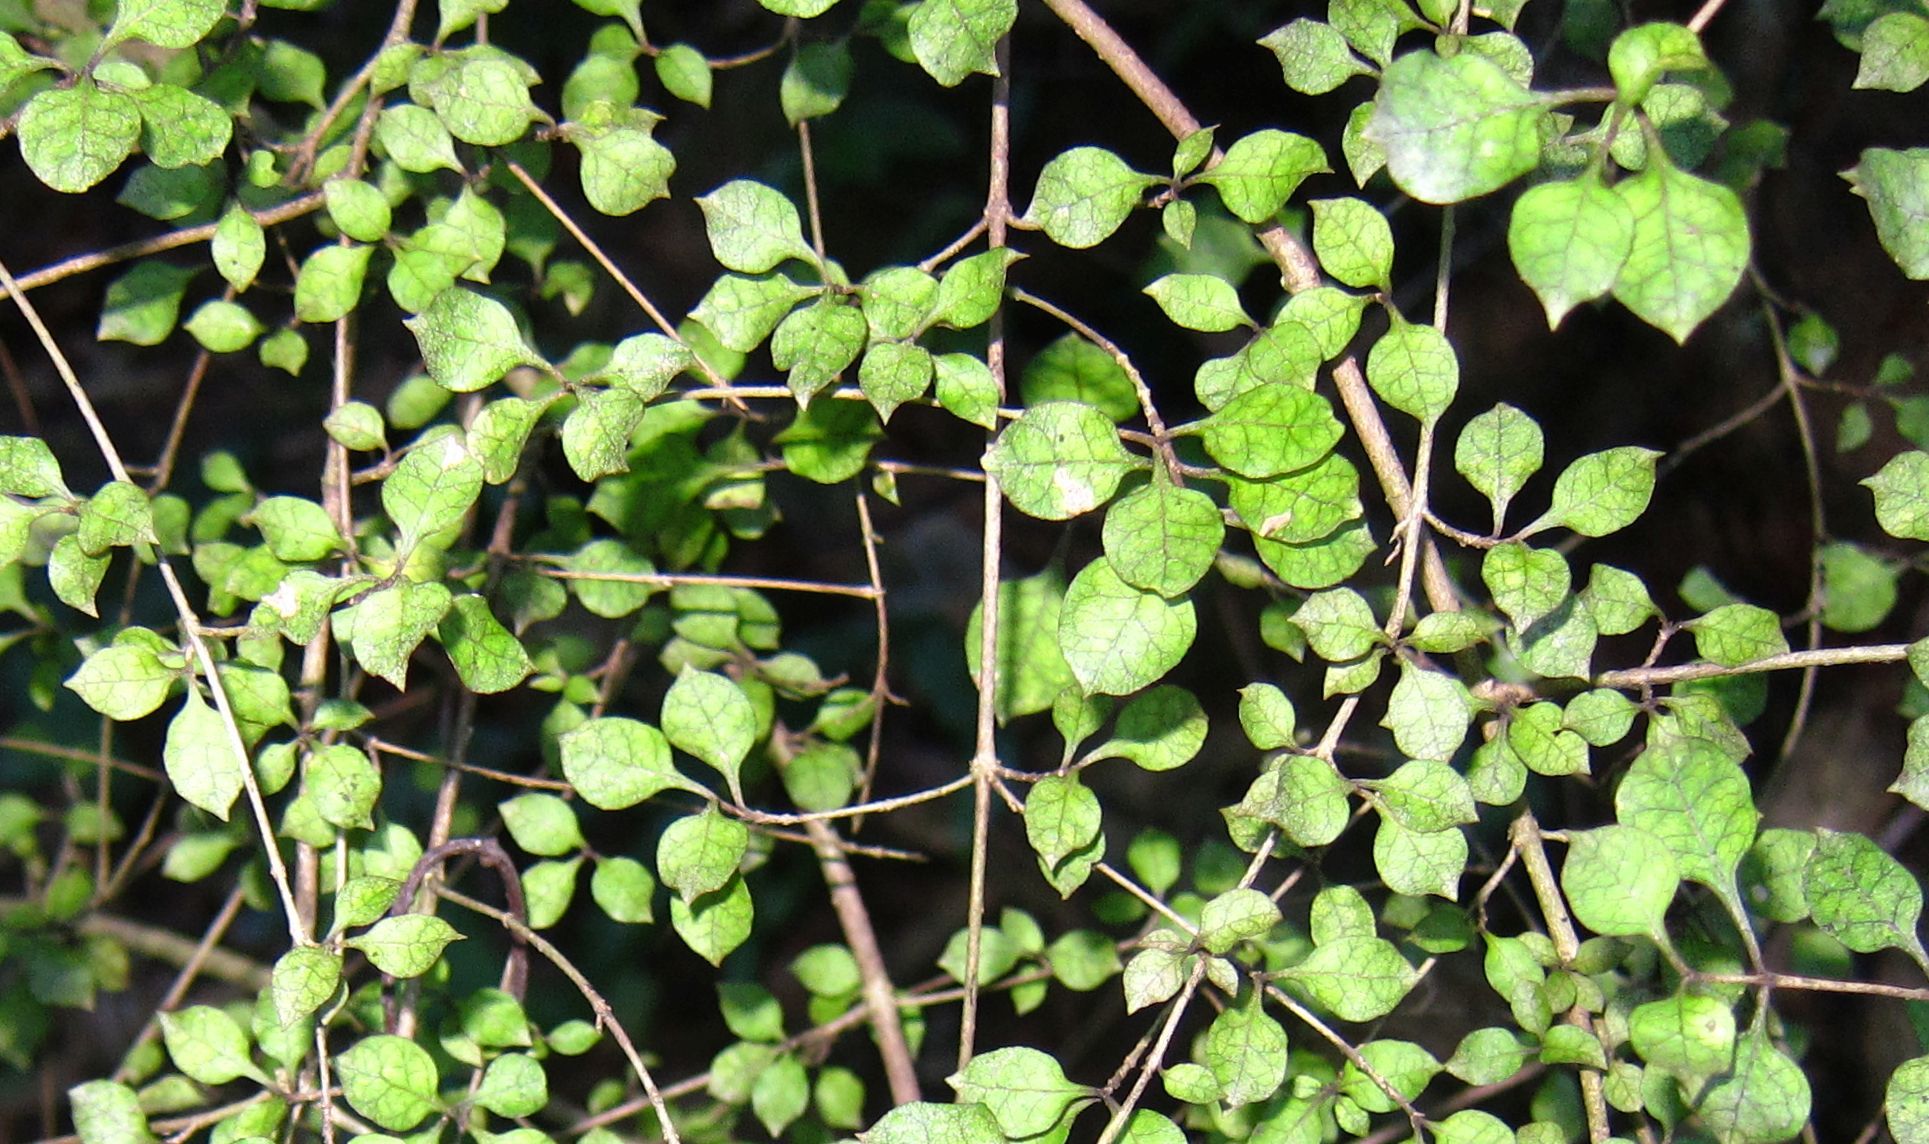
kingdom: Plantae
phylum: Tracheophyta
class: Magnoliopsida
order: Gentianales
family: Rubiaceae
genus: Coprosma
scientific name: Coprosma areolata
